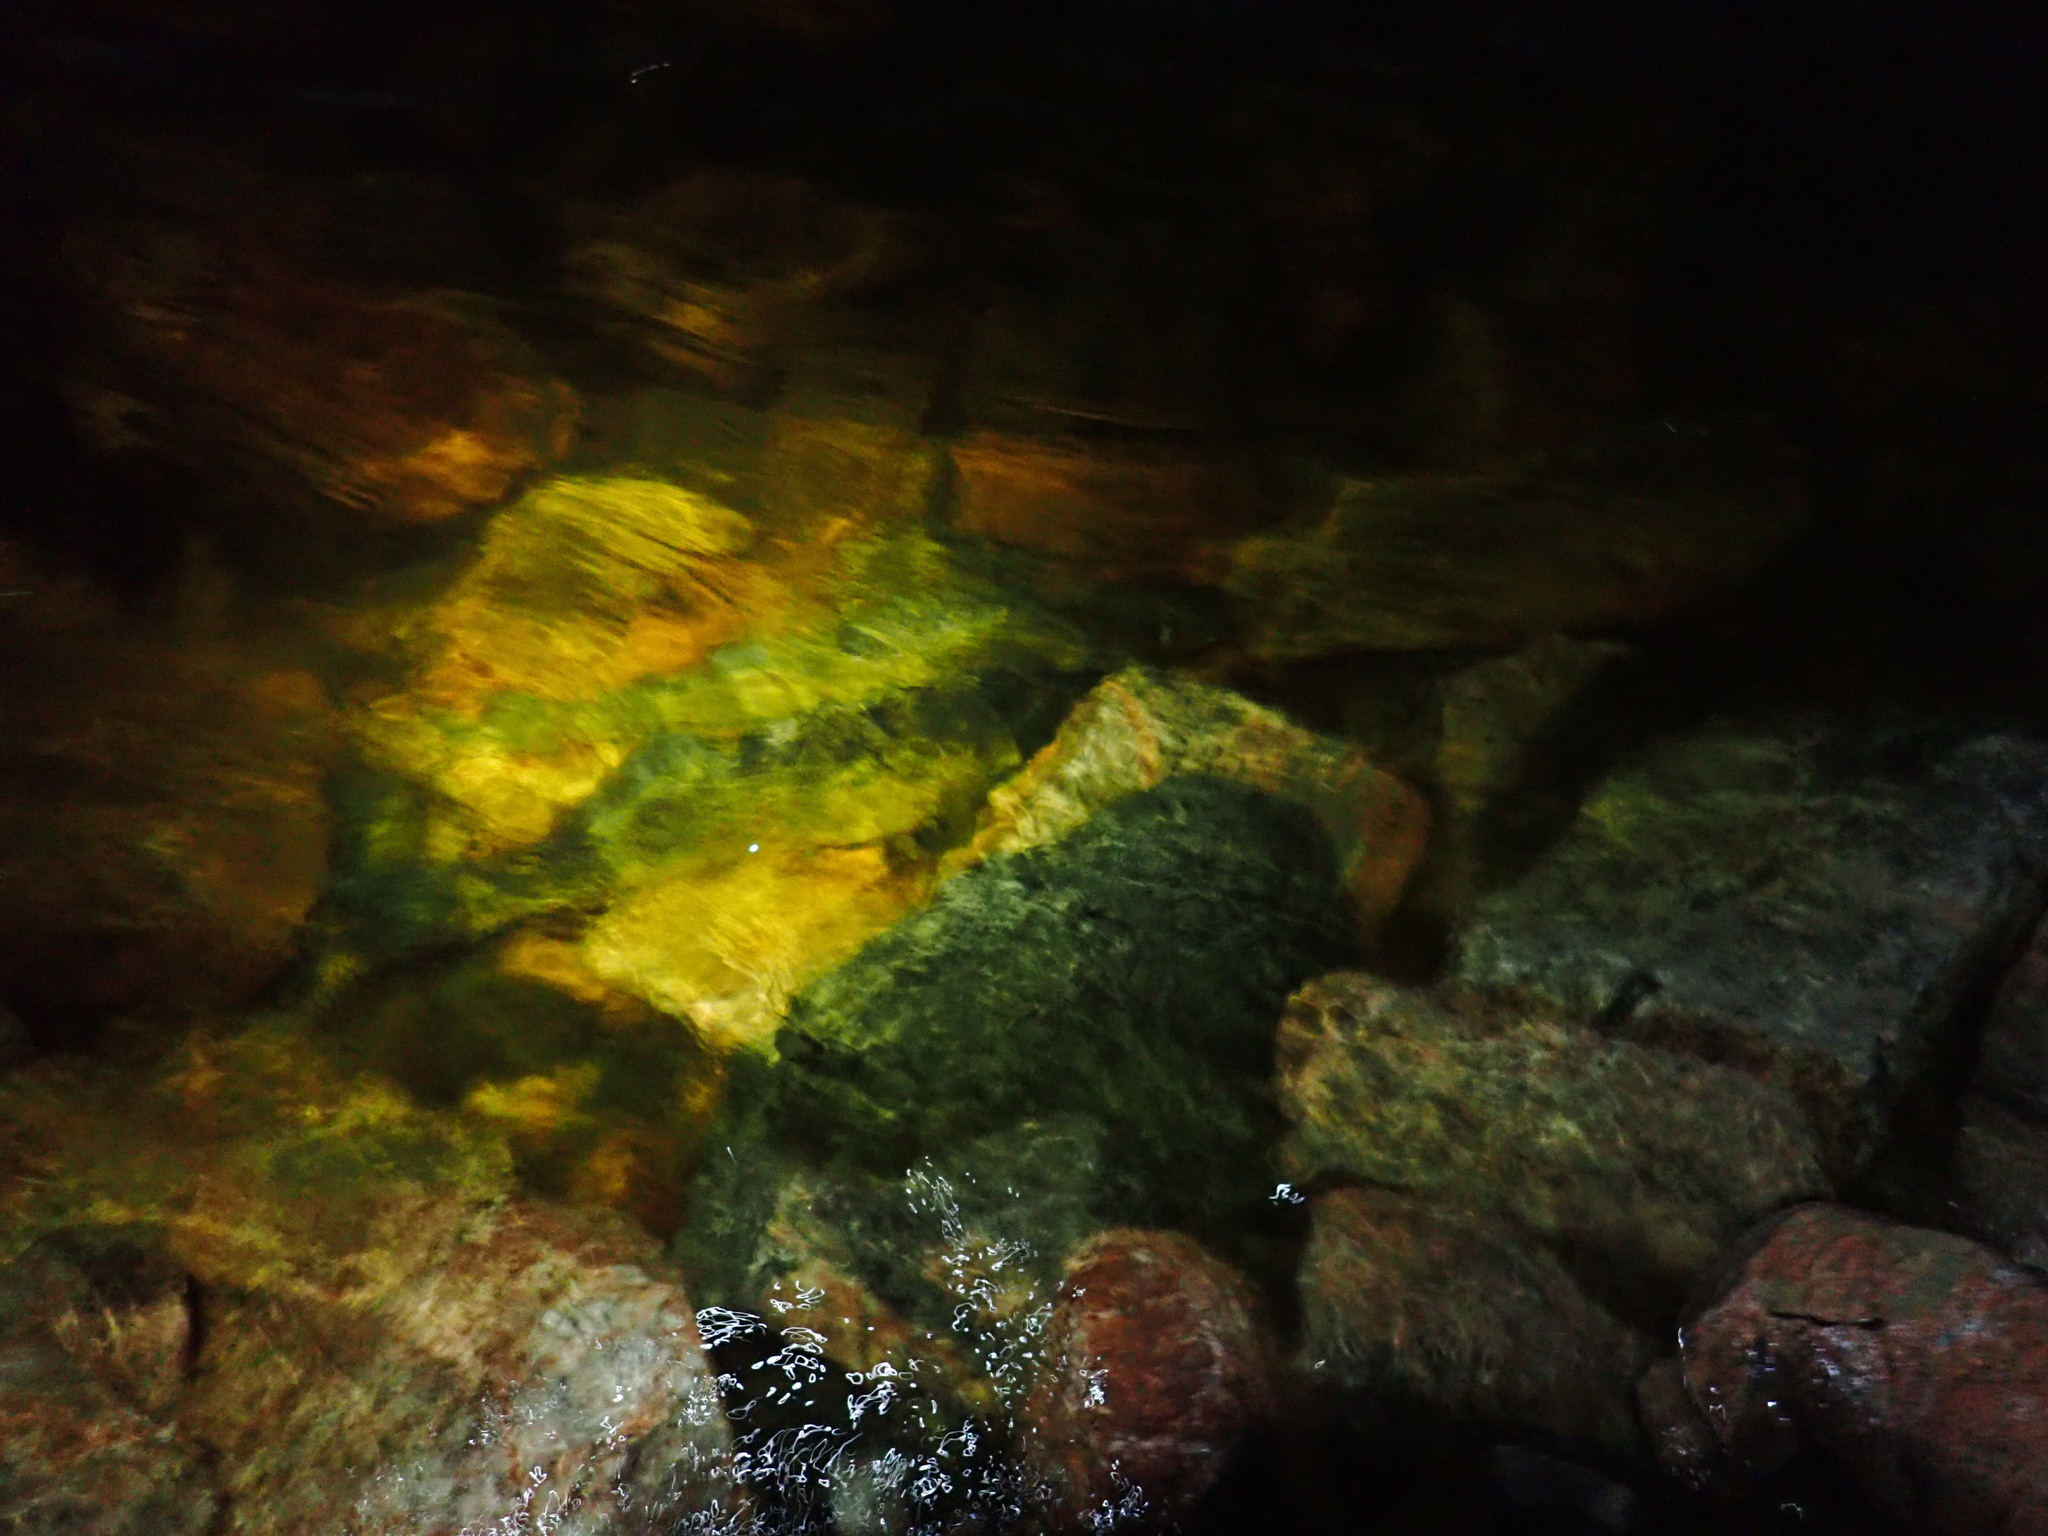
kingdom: Animalia
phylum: Chordata
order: Perciformes
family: Percidae
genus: Sander
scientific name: Sander vitreus
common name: Walleye
